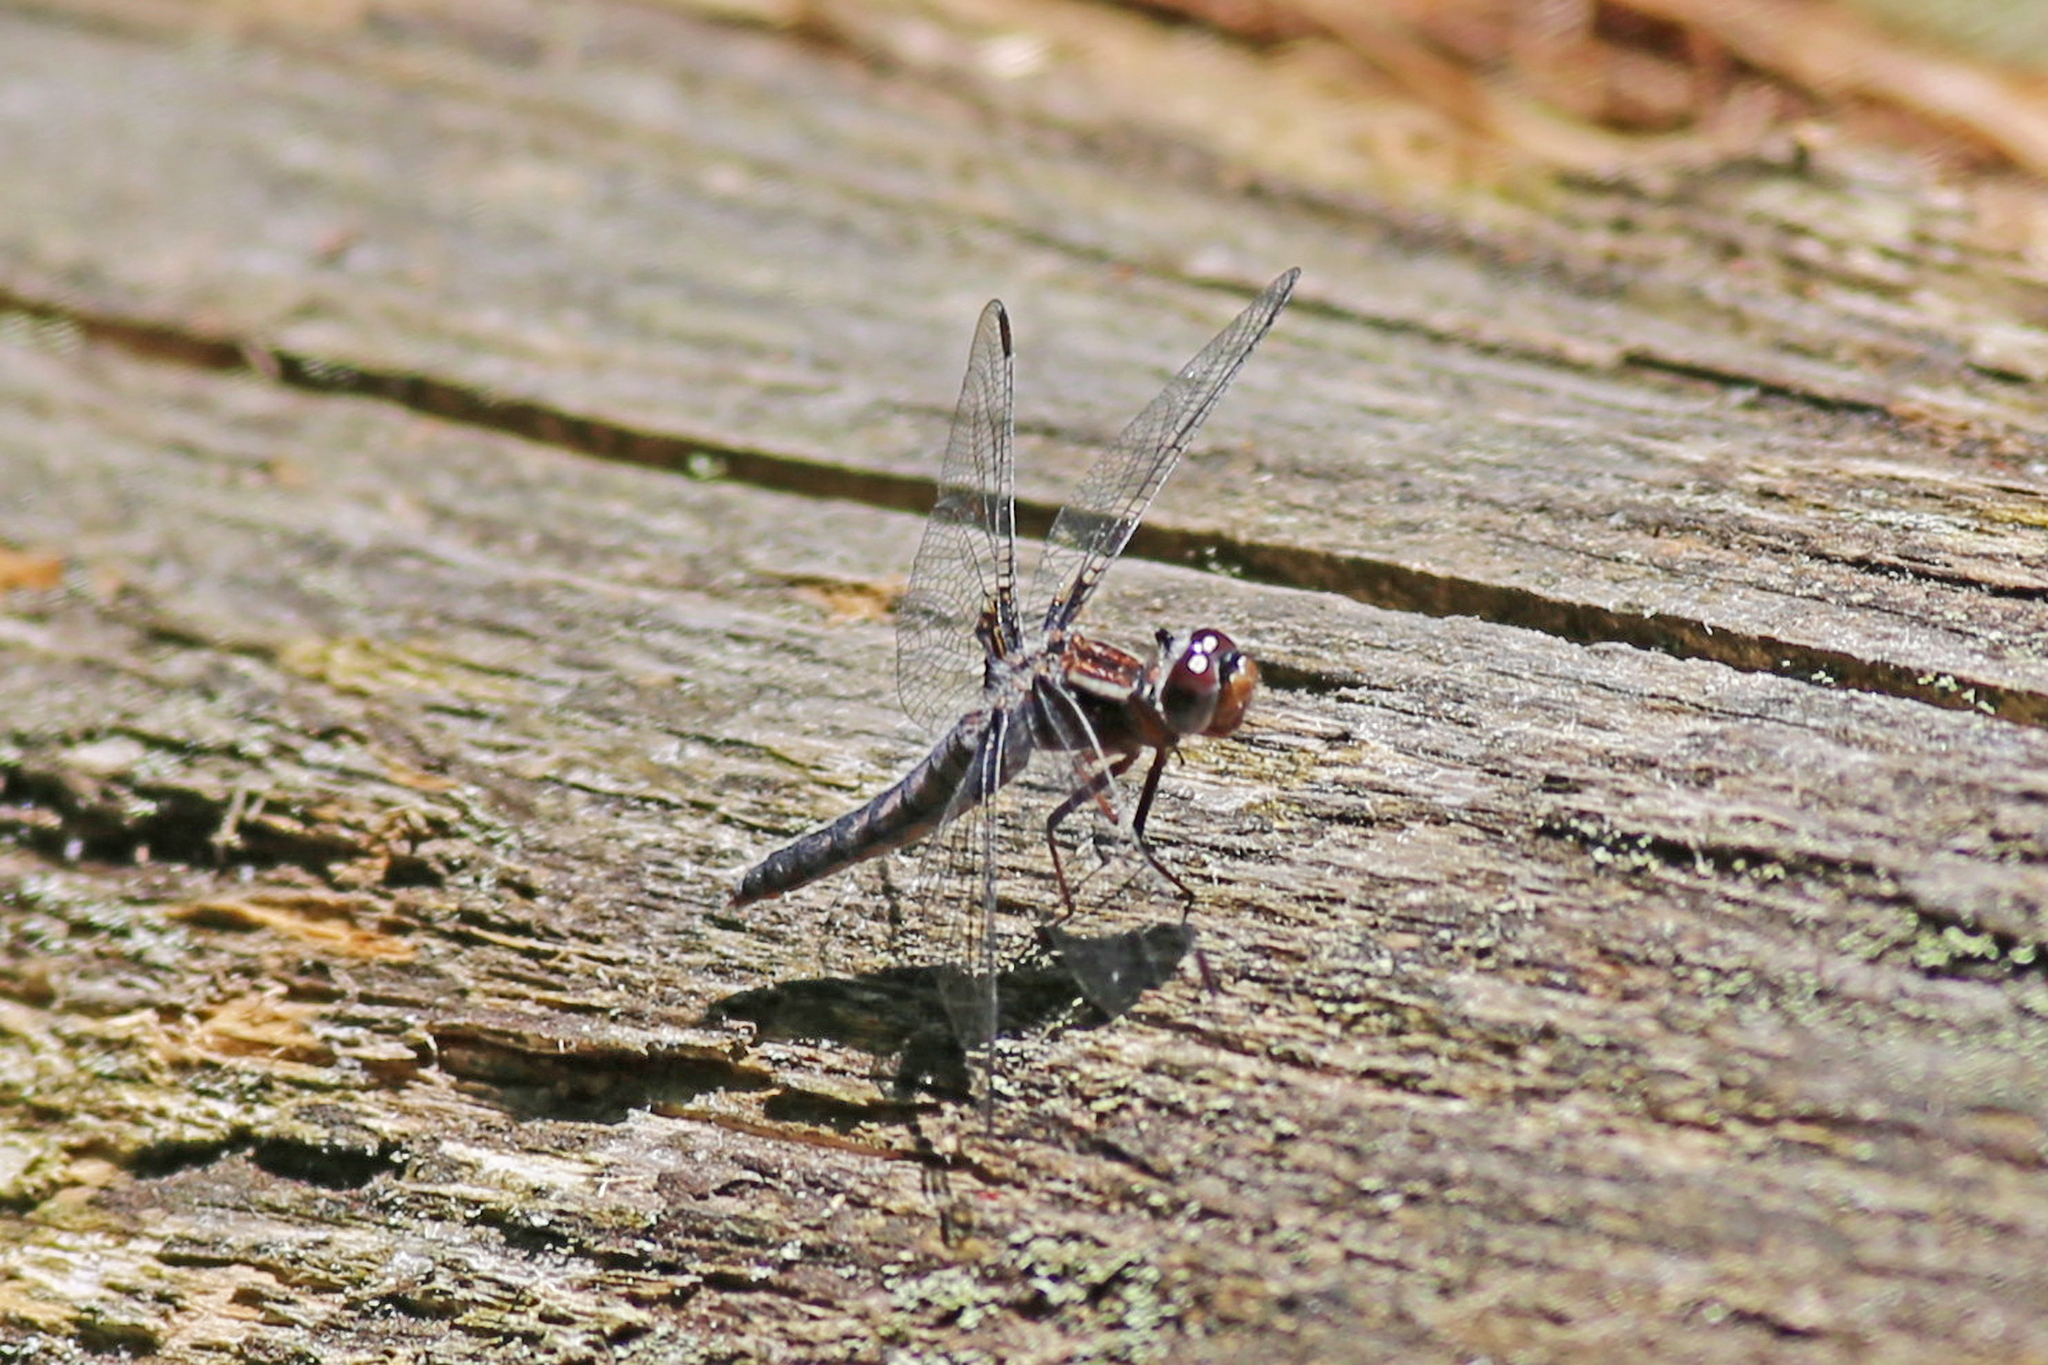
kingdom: Animalia
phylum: Arthropoda
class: Insecta
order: Odonata
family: Libellulidae
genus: Ladona
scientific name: Ladona deplanata
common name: Blue corporal
